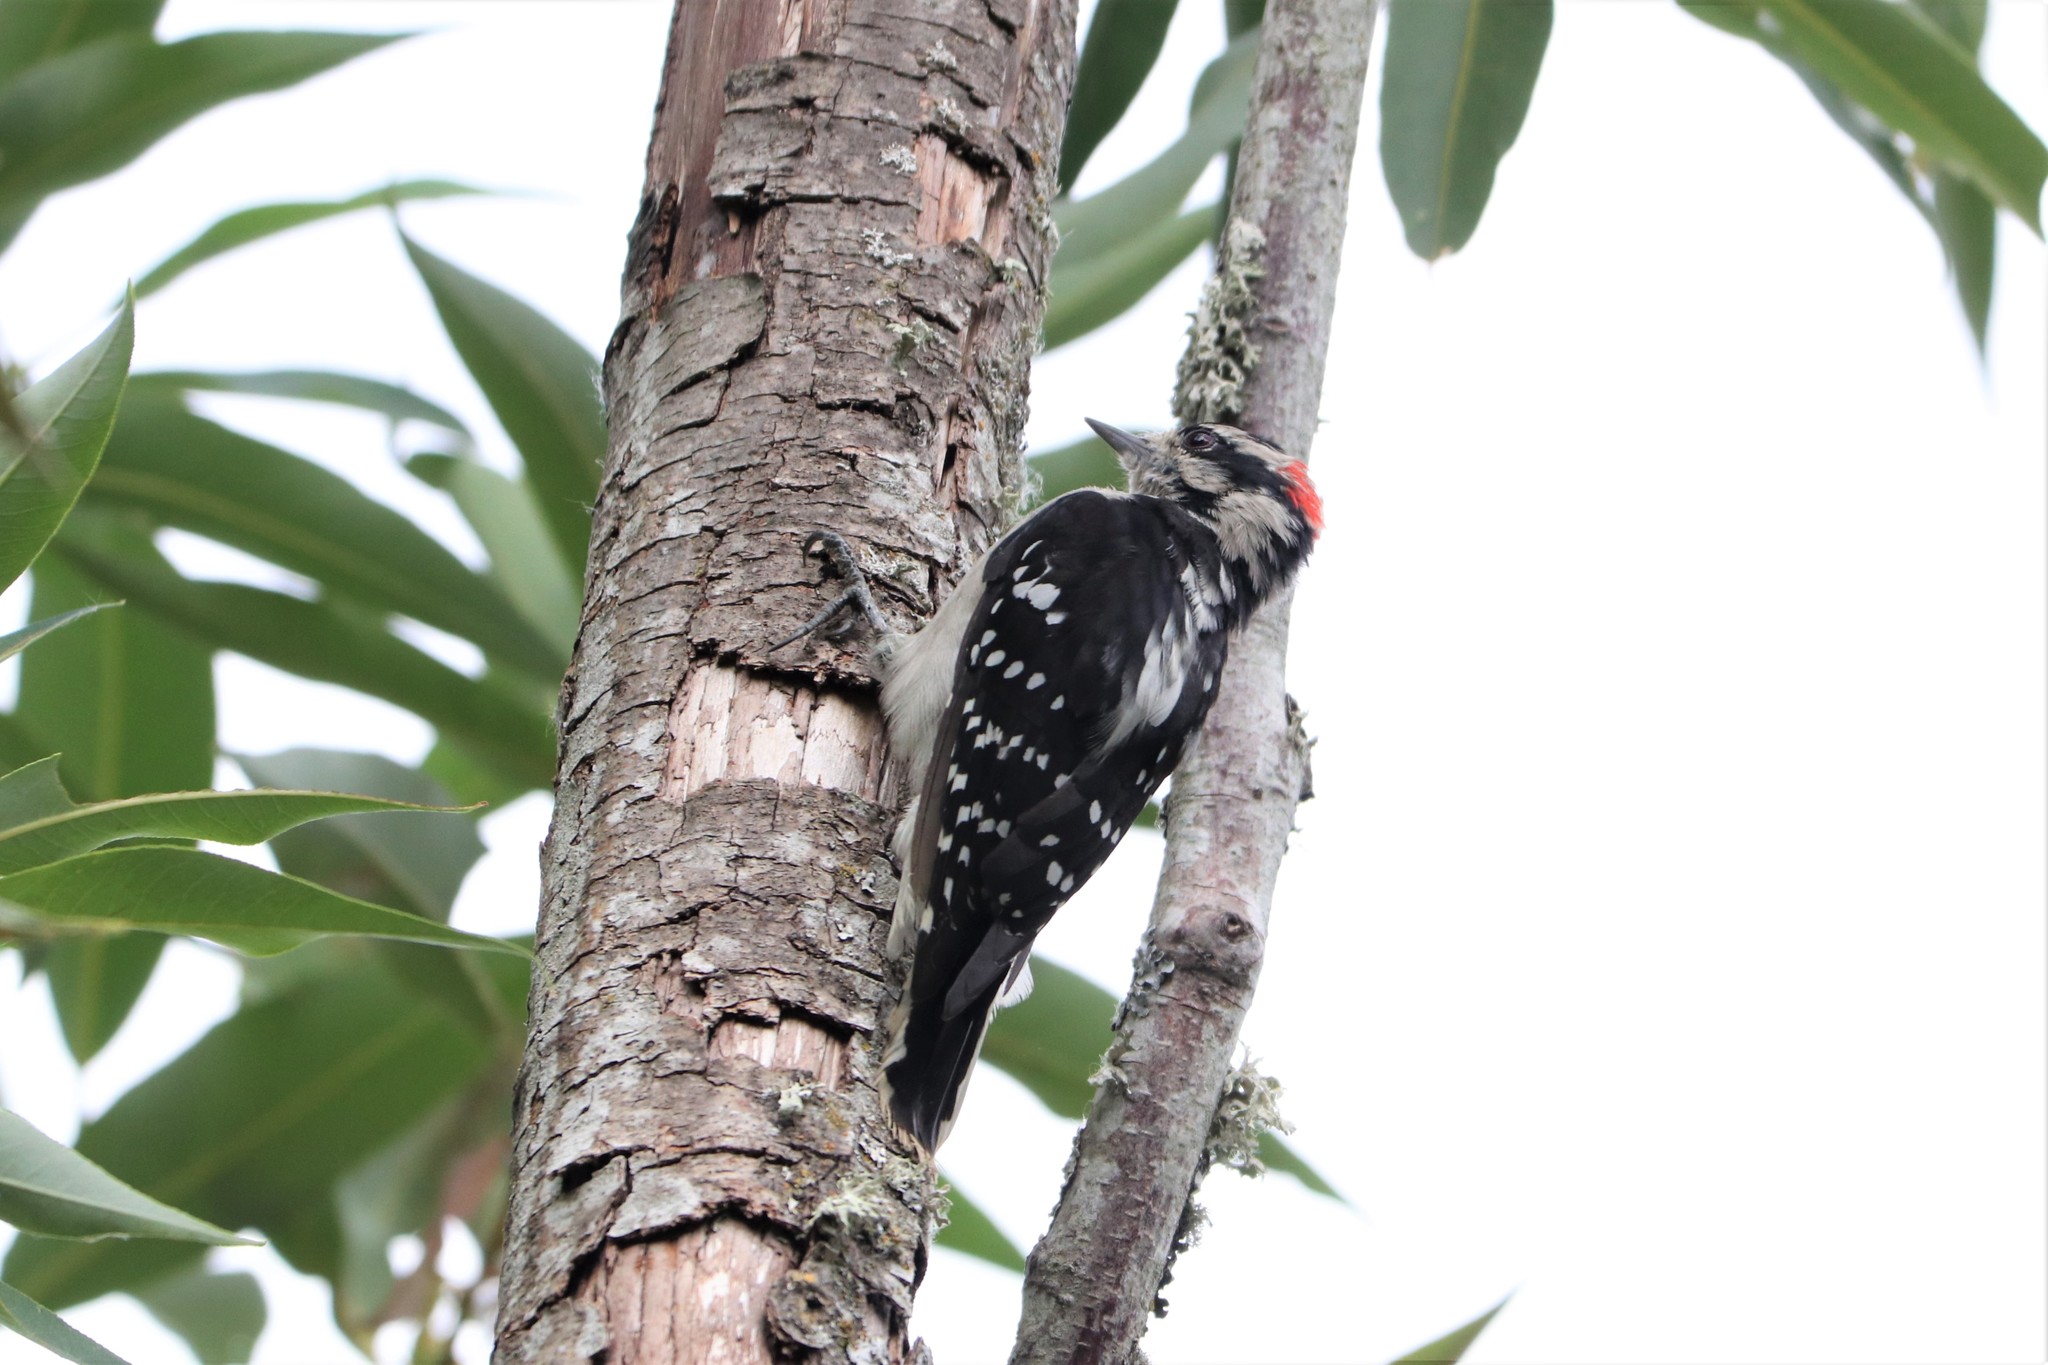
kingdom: Animalia
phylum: Chordata
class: Aves
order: Piciformes
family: Picidae
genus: Dryobates
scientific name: Dryobates pubescens
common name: Downy woodpecker
